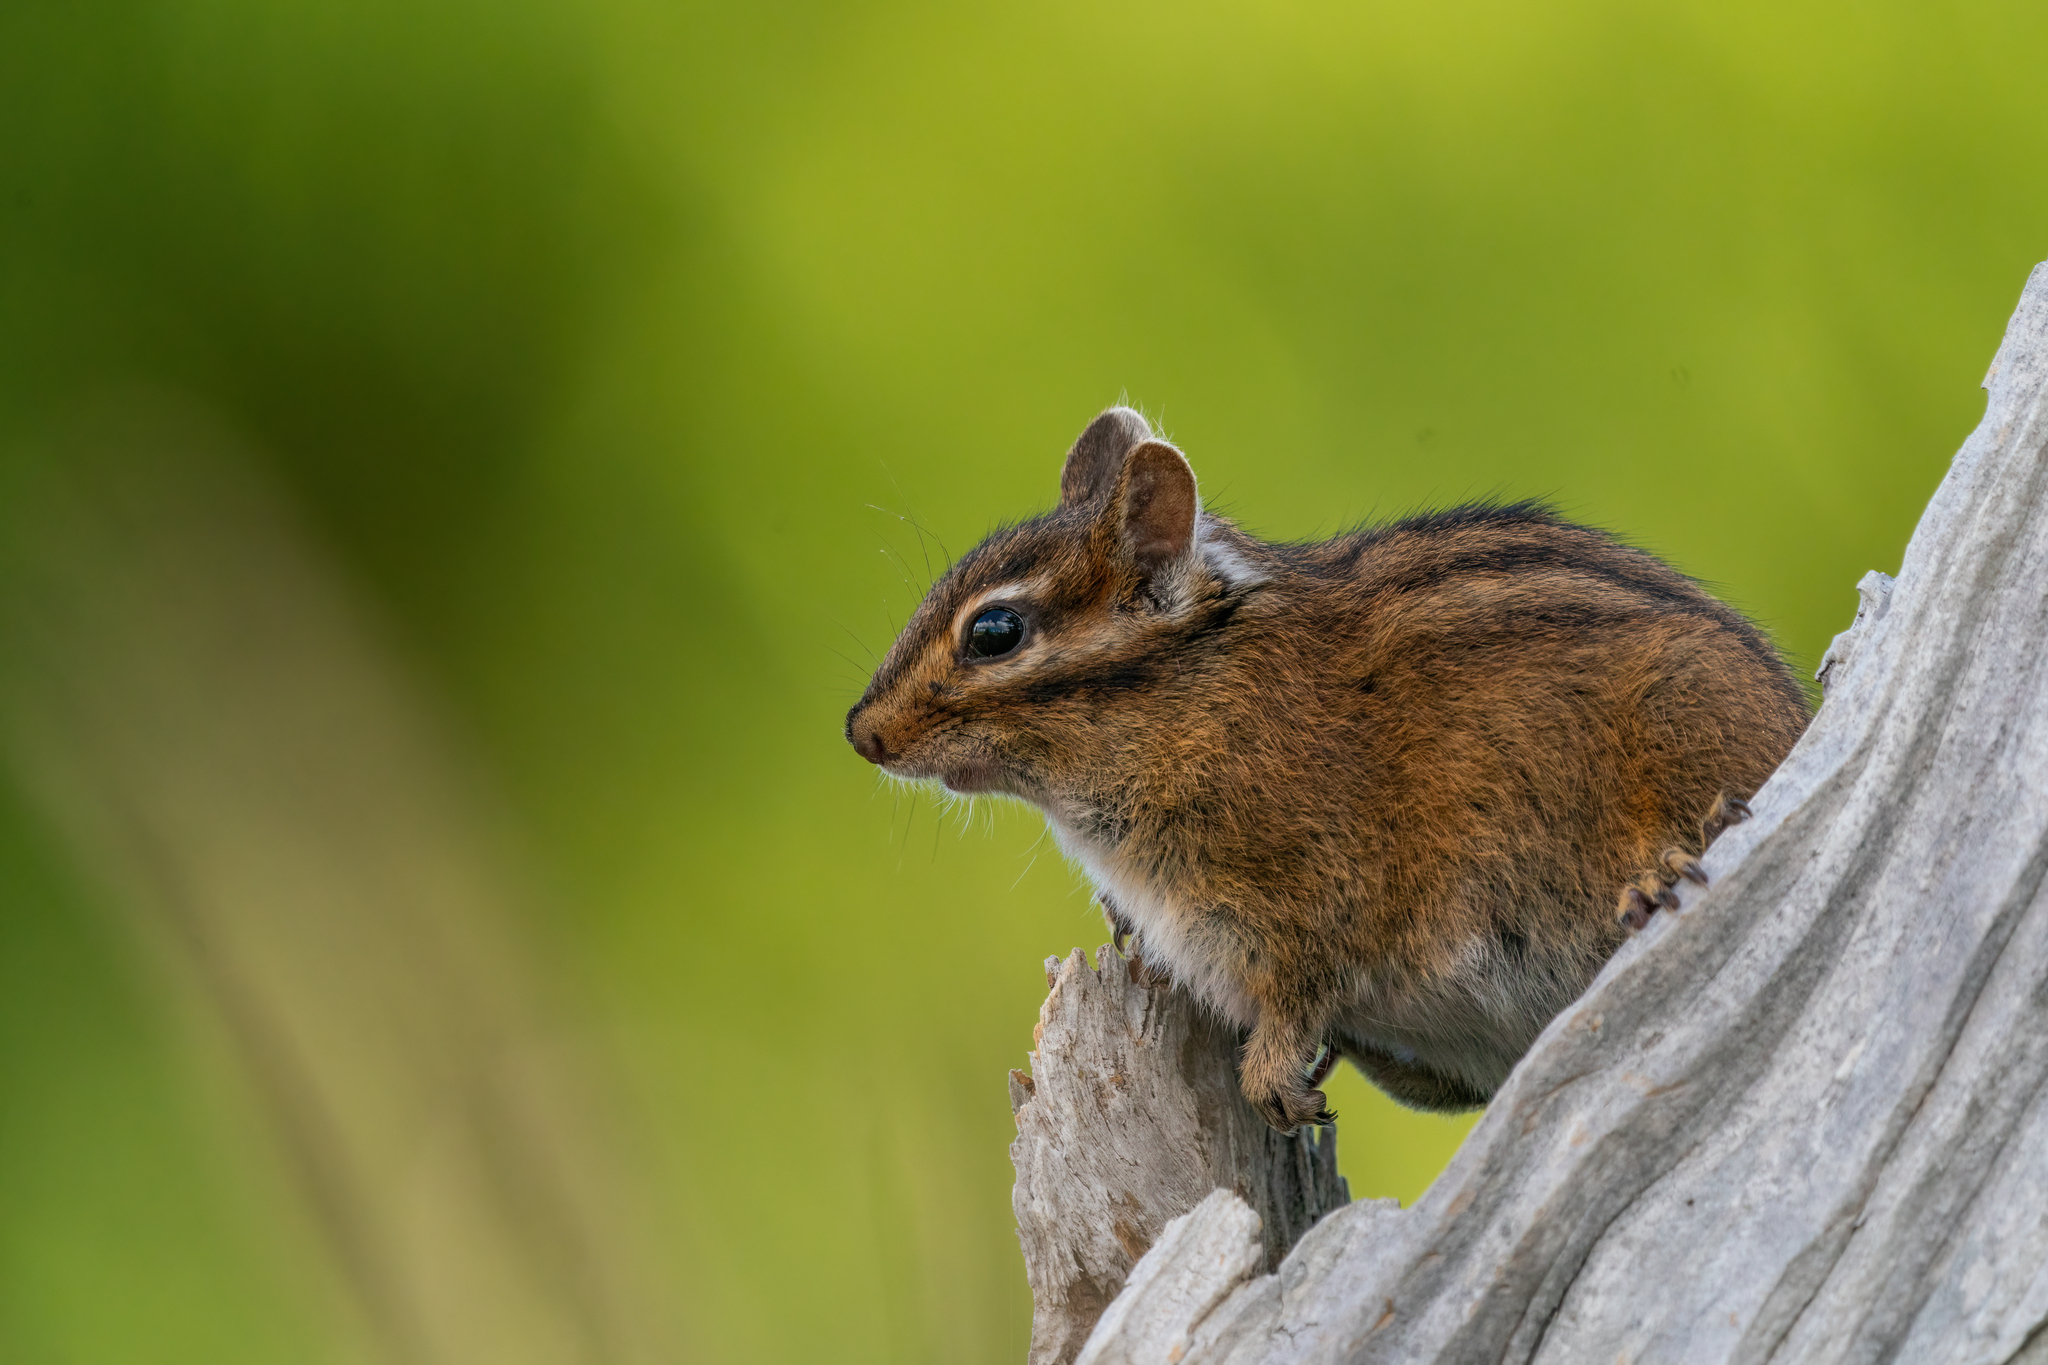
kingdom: Animalia
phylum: Chordata
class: Mammalia
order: Rodentia
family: Sciuridae
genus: Tamias
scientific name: Tamias townsendii
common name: Townsend's chipmunk
